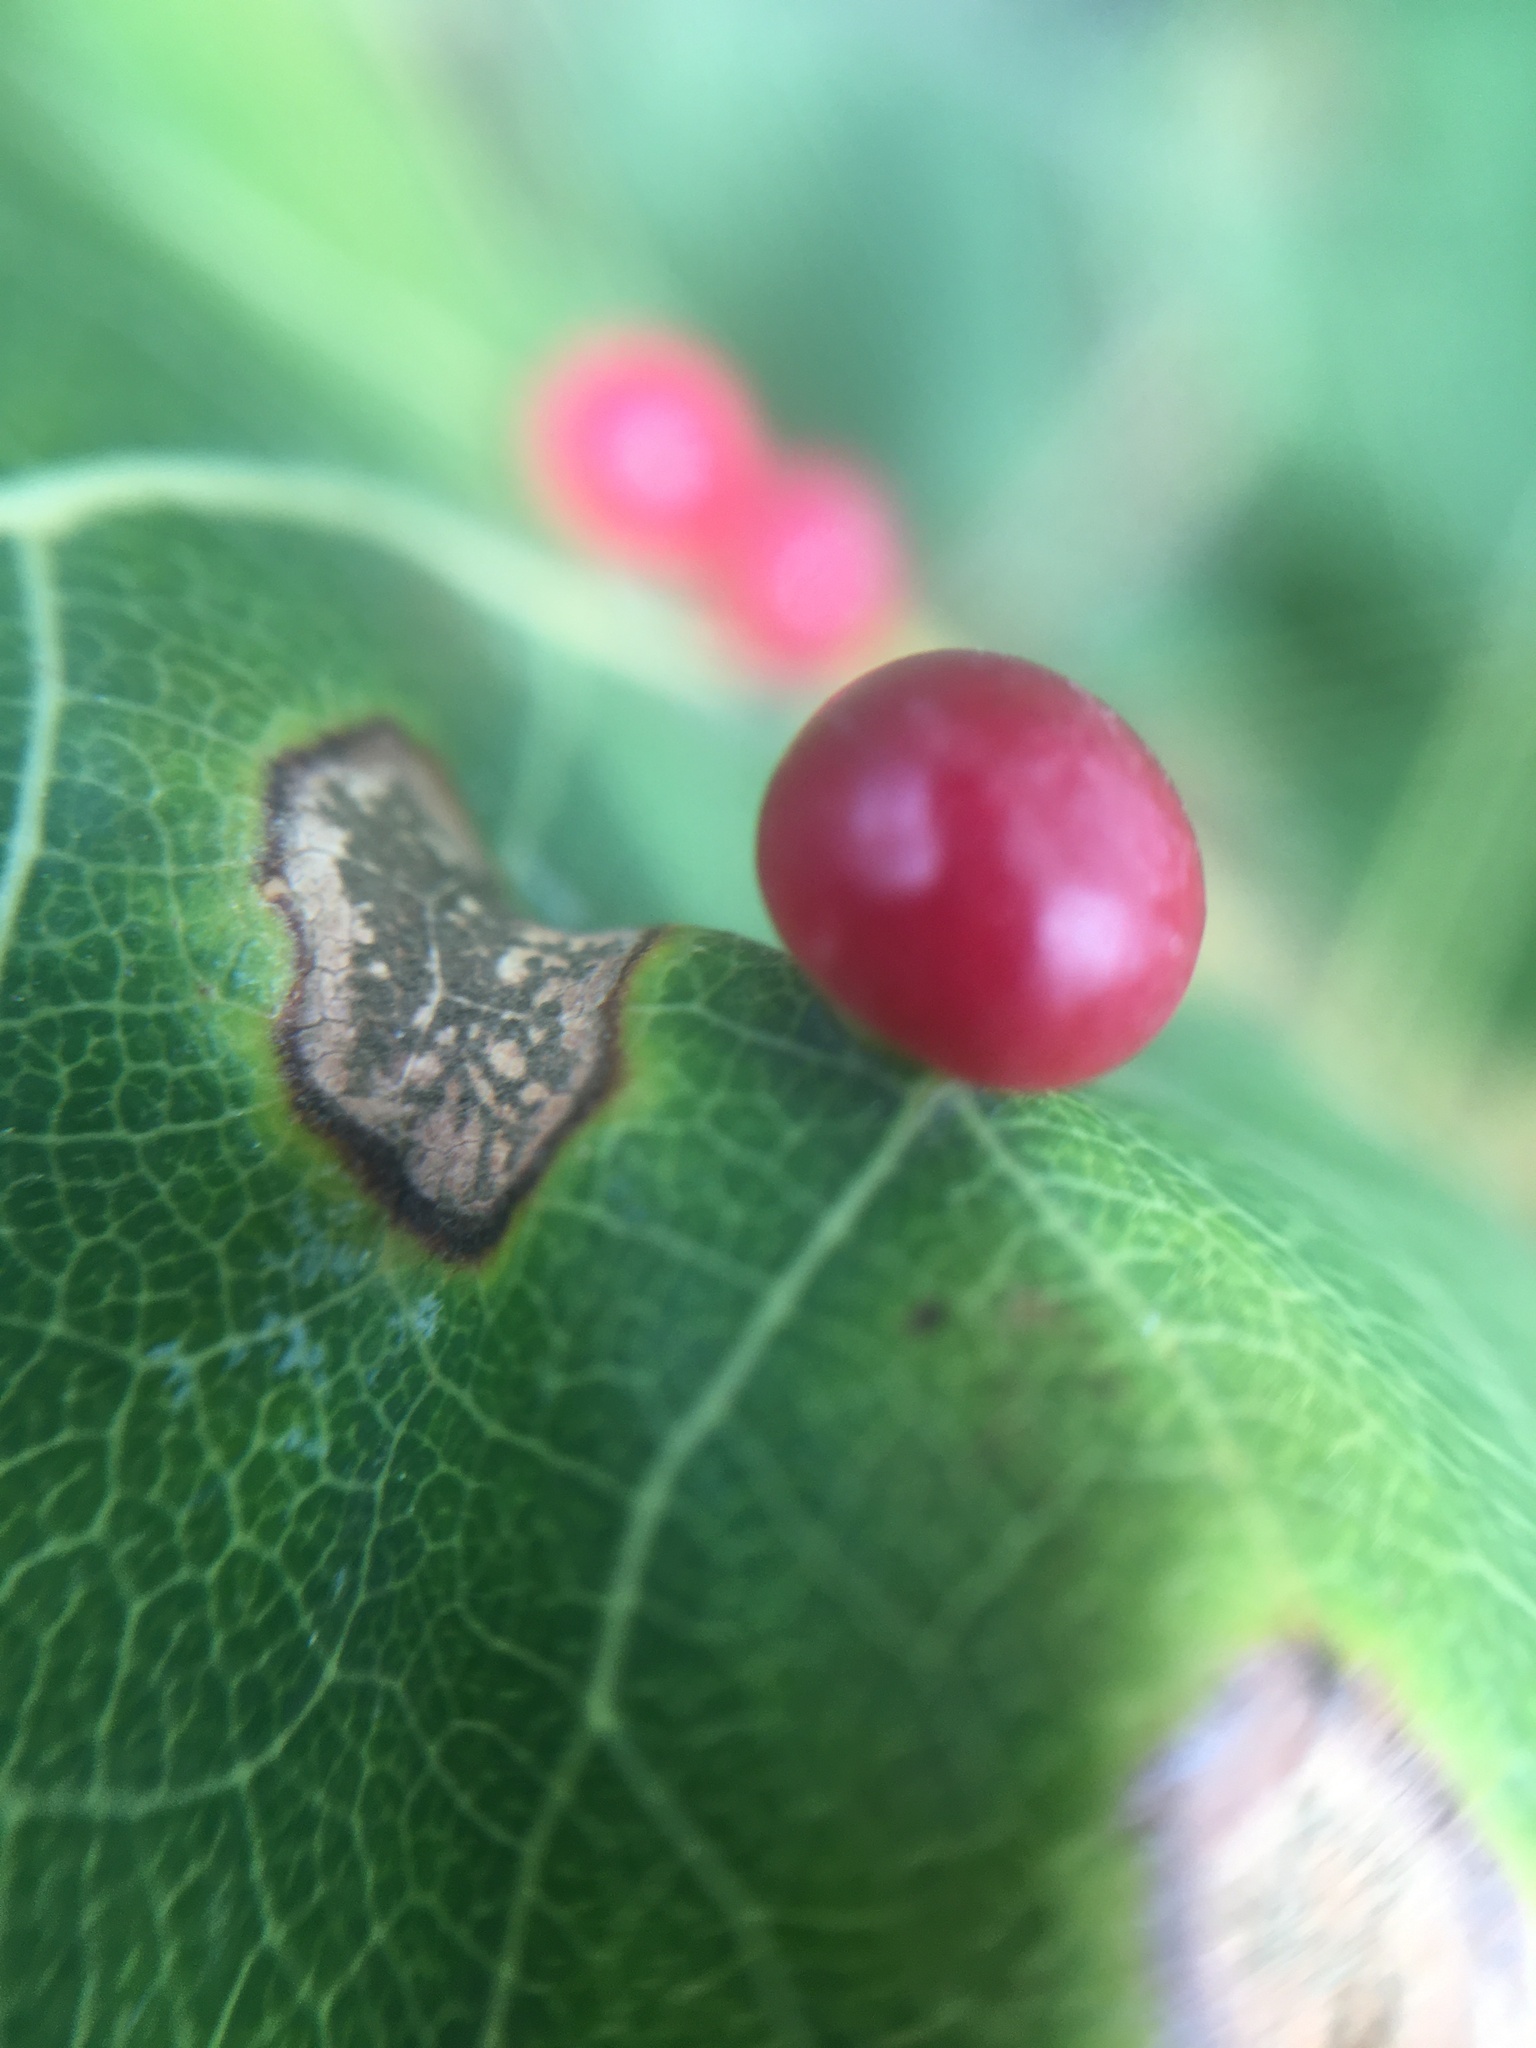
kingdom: Animalia
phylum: Arthropoda
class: Insecta
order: Diptera
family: Cecidomyiidae
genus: Harmandiola
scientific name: Harmandiola tremulae
